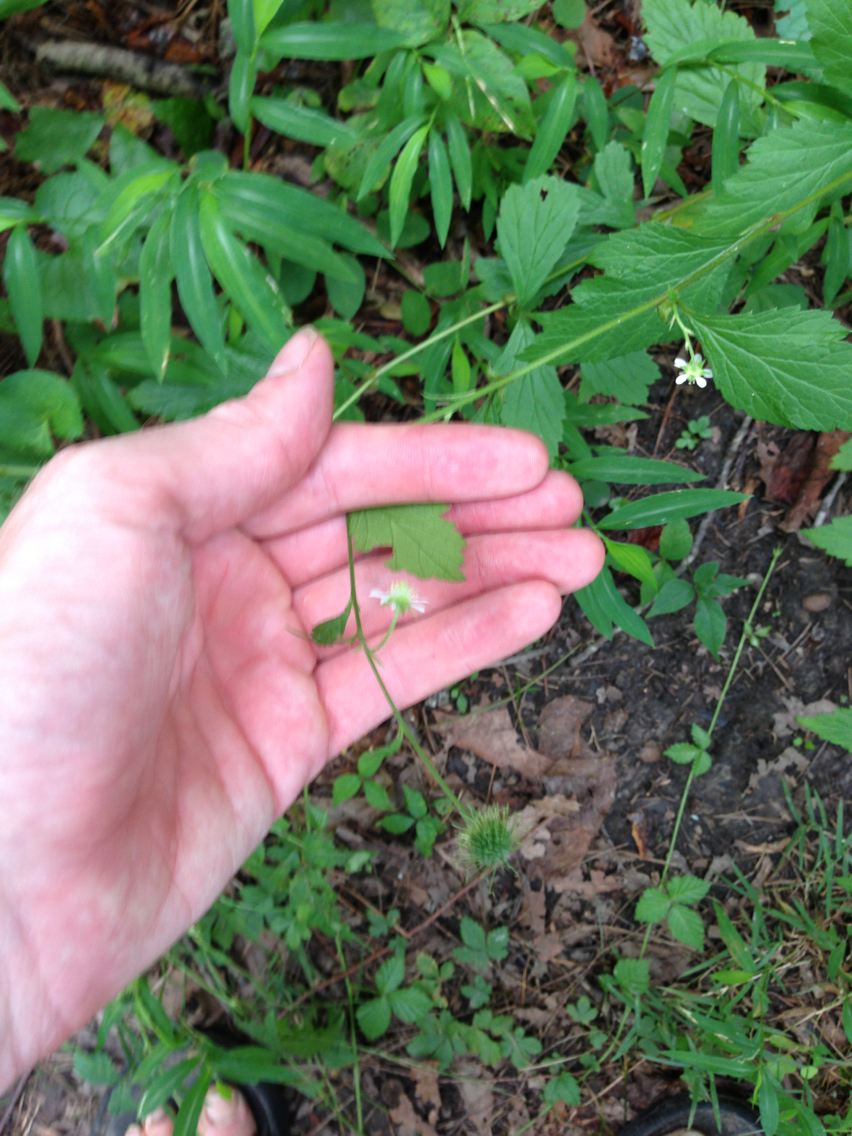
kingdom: Plantae
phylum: Tracheophyta
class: Magnoliopsida
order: Rosales
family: Rosaceae
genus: Geum
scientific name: Geum canadense
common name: White avens
